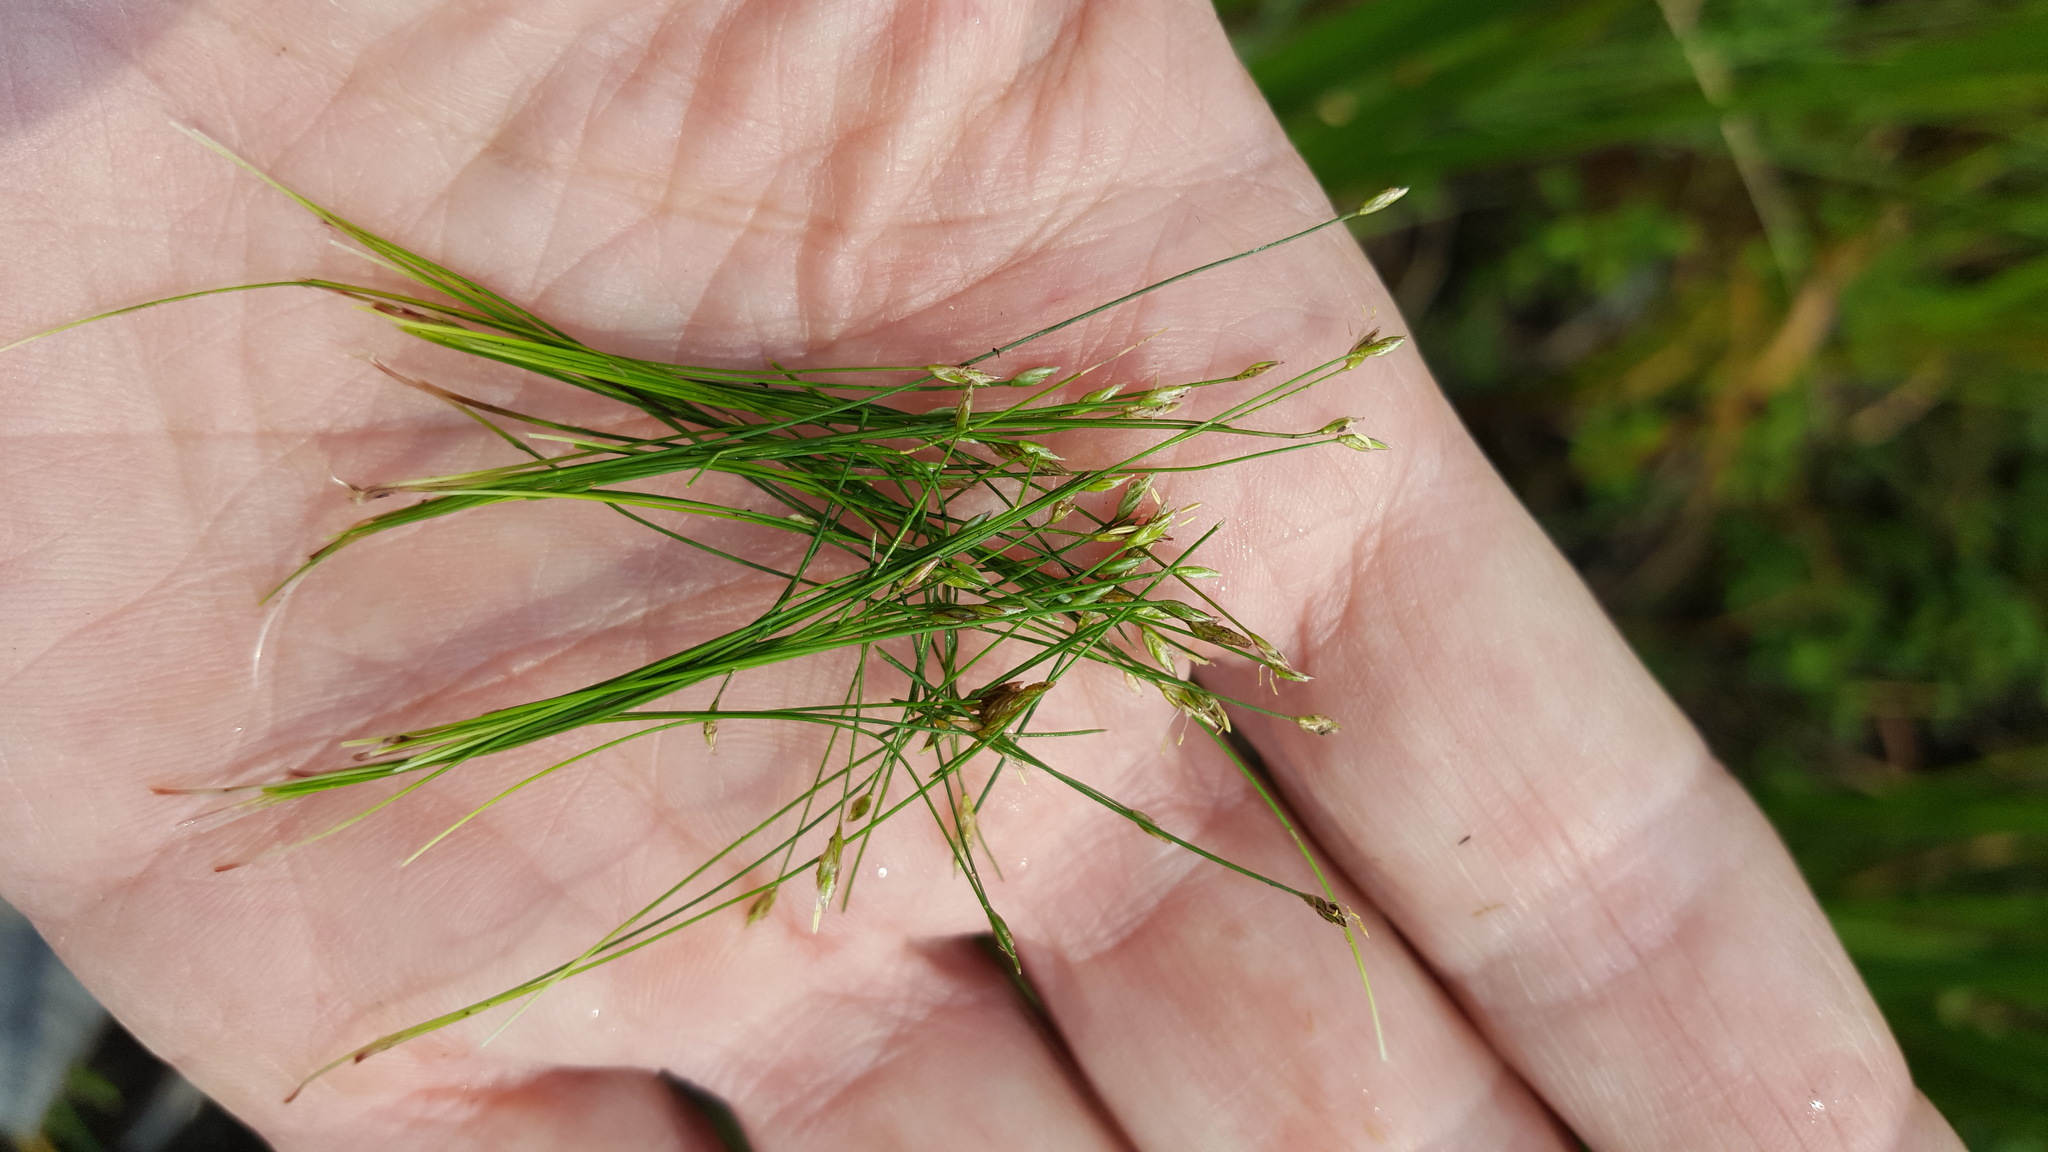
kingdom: Plantae
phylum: Tracheophyta
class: Liliopsida
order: Poales
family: Cyperaceae
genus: Eleocharis
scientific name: Eleocharis acicularis
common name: Needle spike-rush
